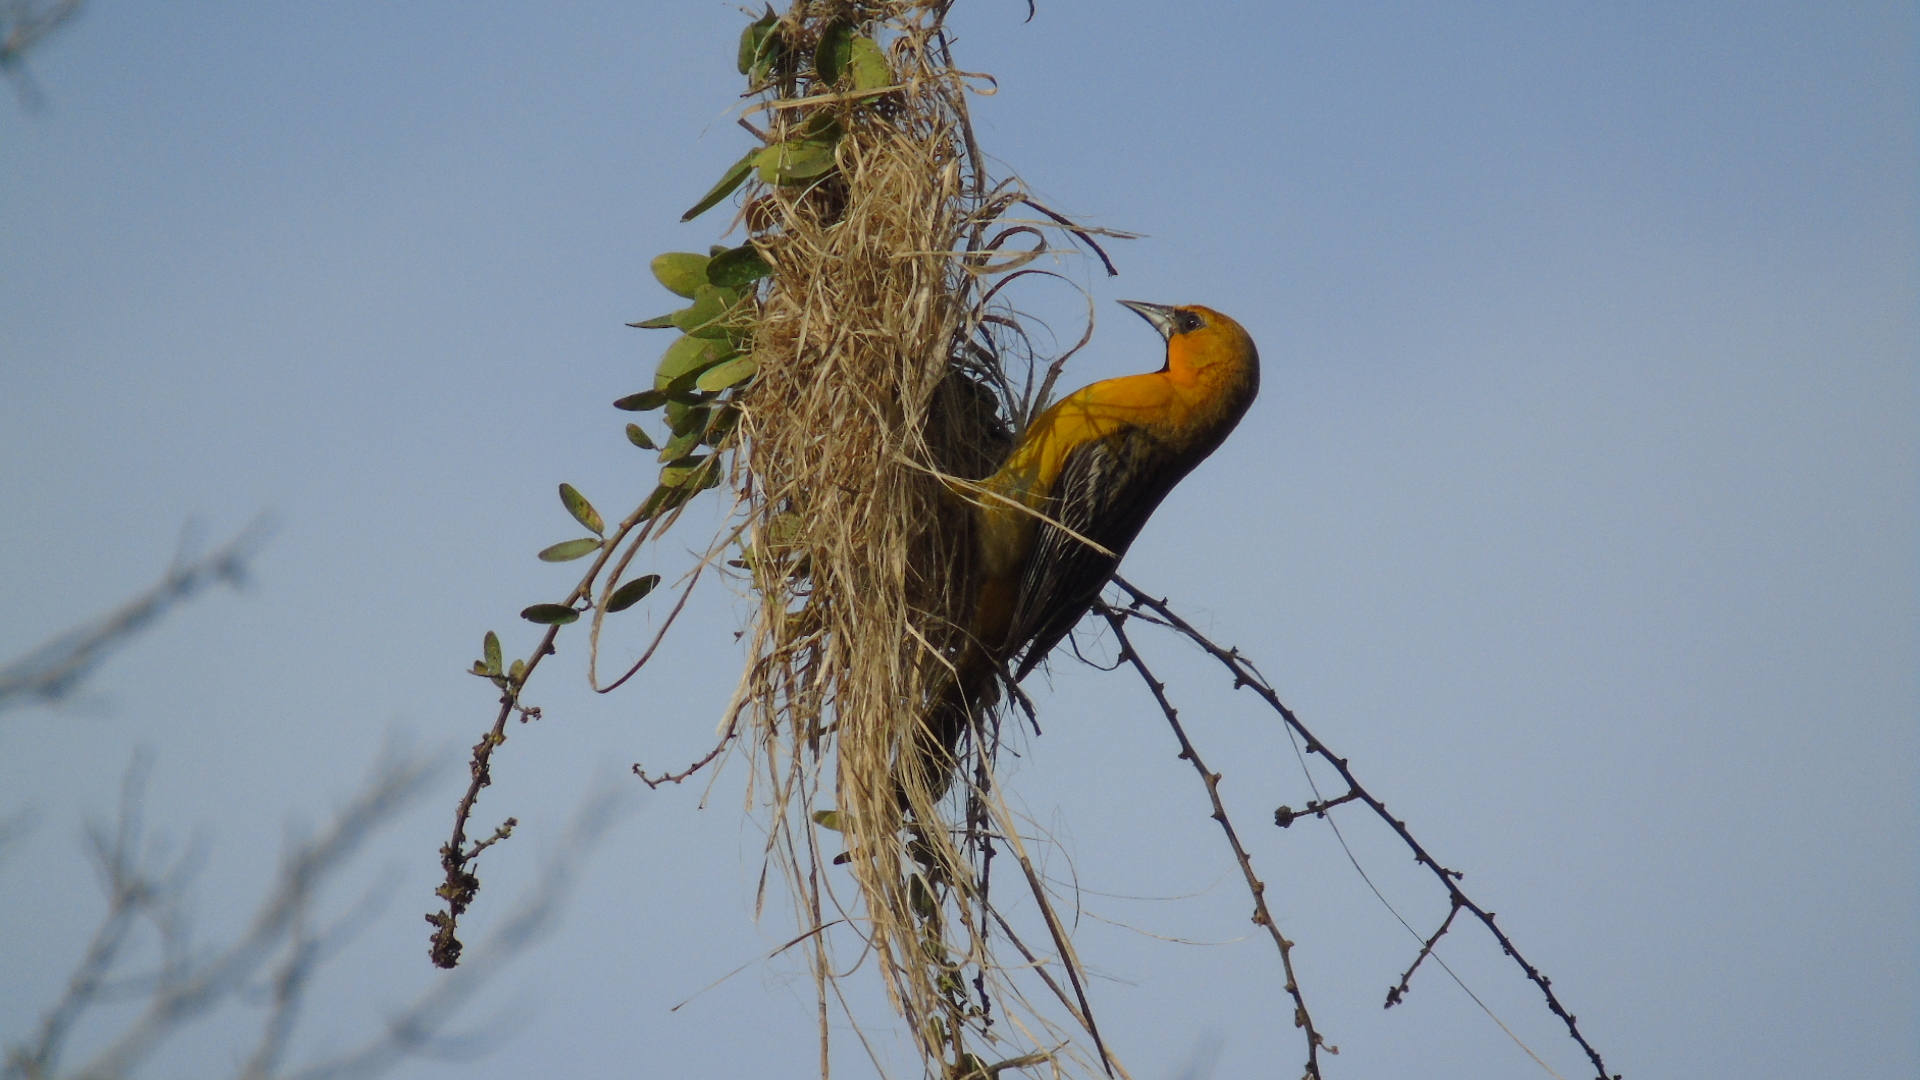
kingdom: Animalia
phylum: Chordata
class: Aves
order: Passeriformes
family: Icteridae
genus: Icterus
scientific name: Icterus pustulatus
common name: Streak-backed oriole
